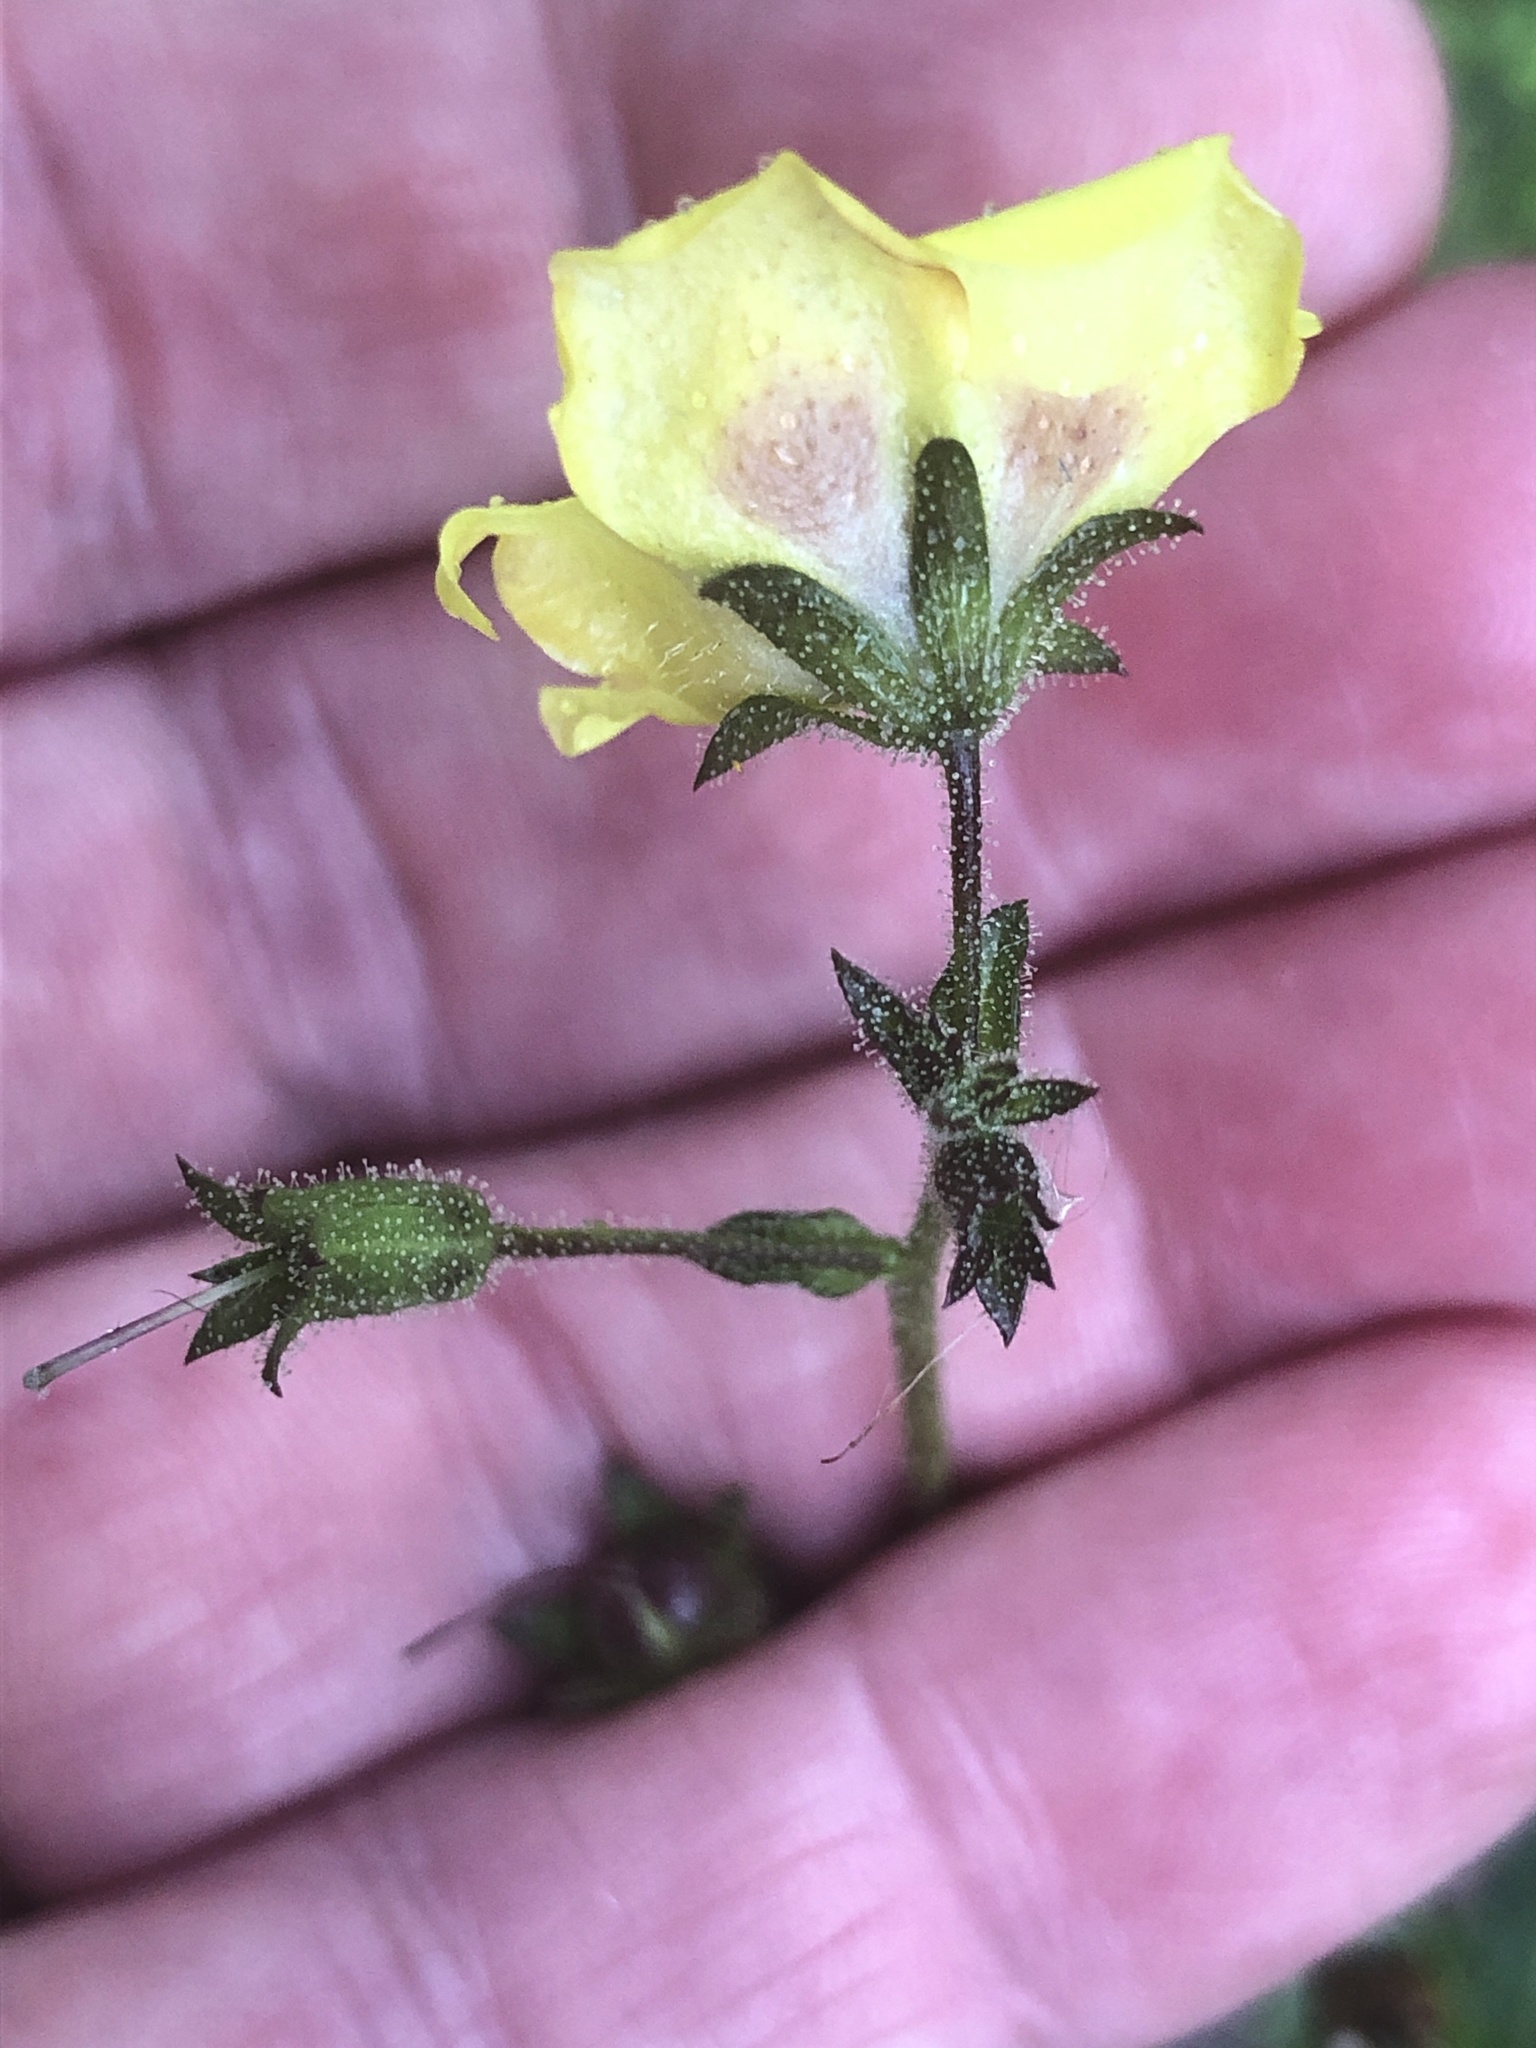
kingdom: Plantae
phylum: Tracheophyta
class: Magnoliopsida
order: Lamiales
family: Scrophulariaceae
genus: Verbascum
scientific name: Verbascum blattaria
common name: Moth mullein
